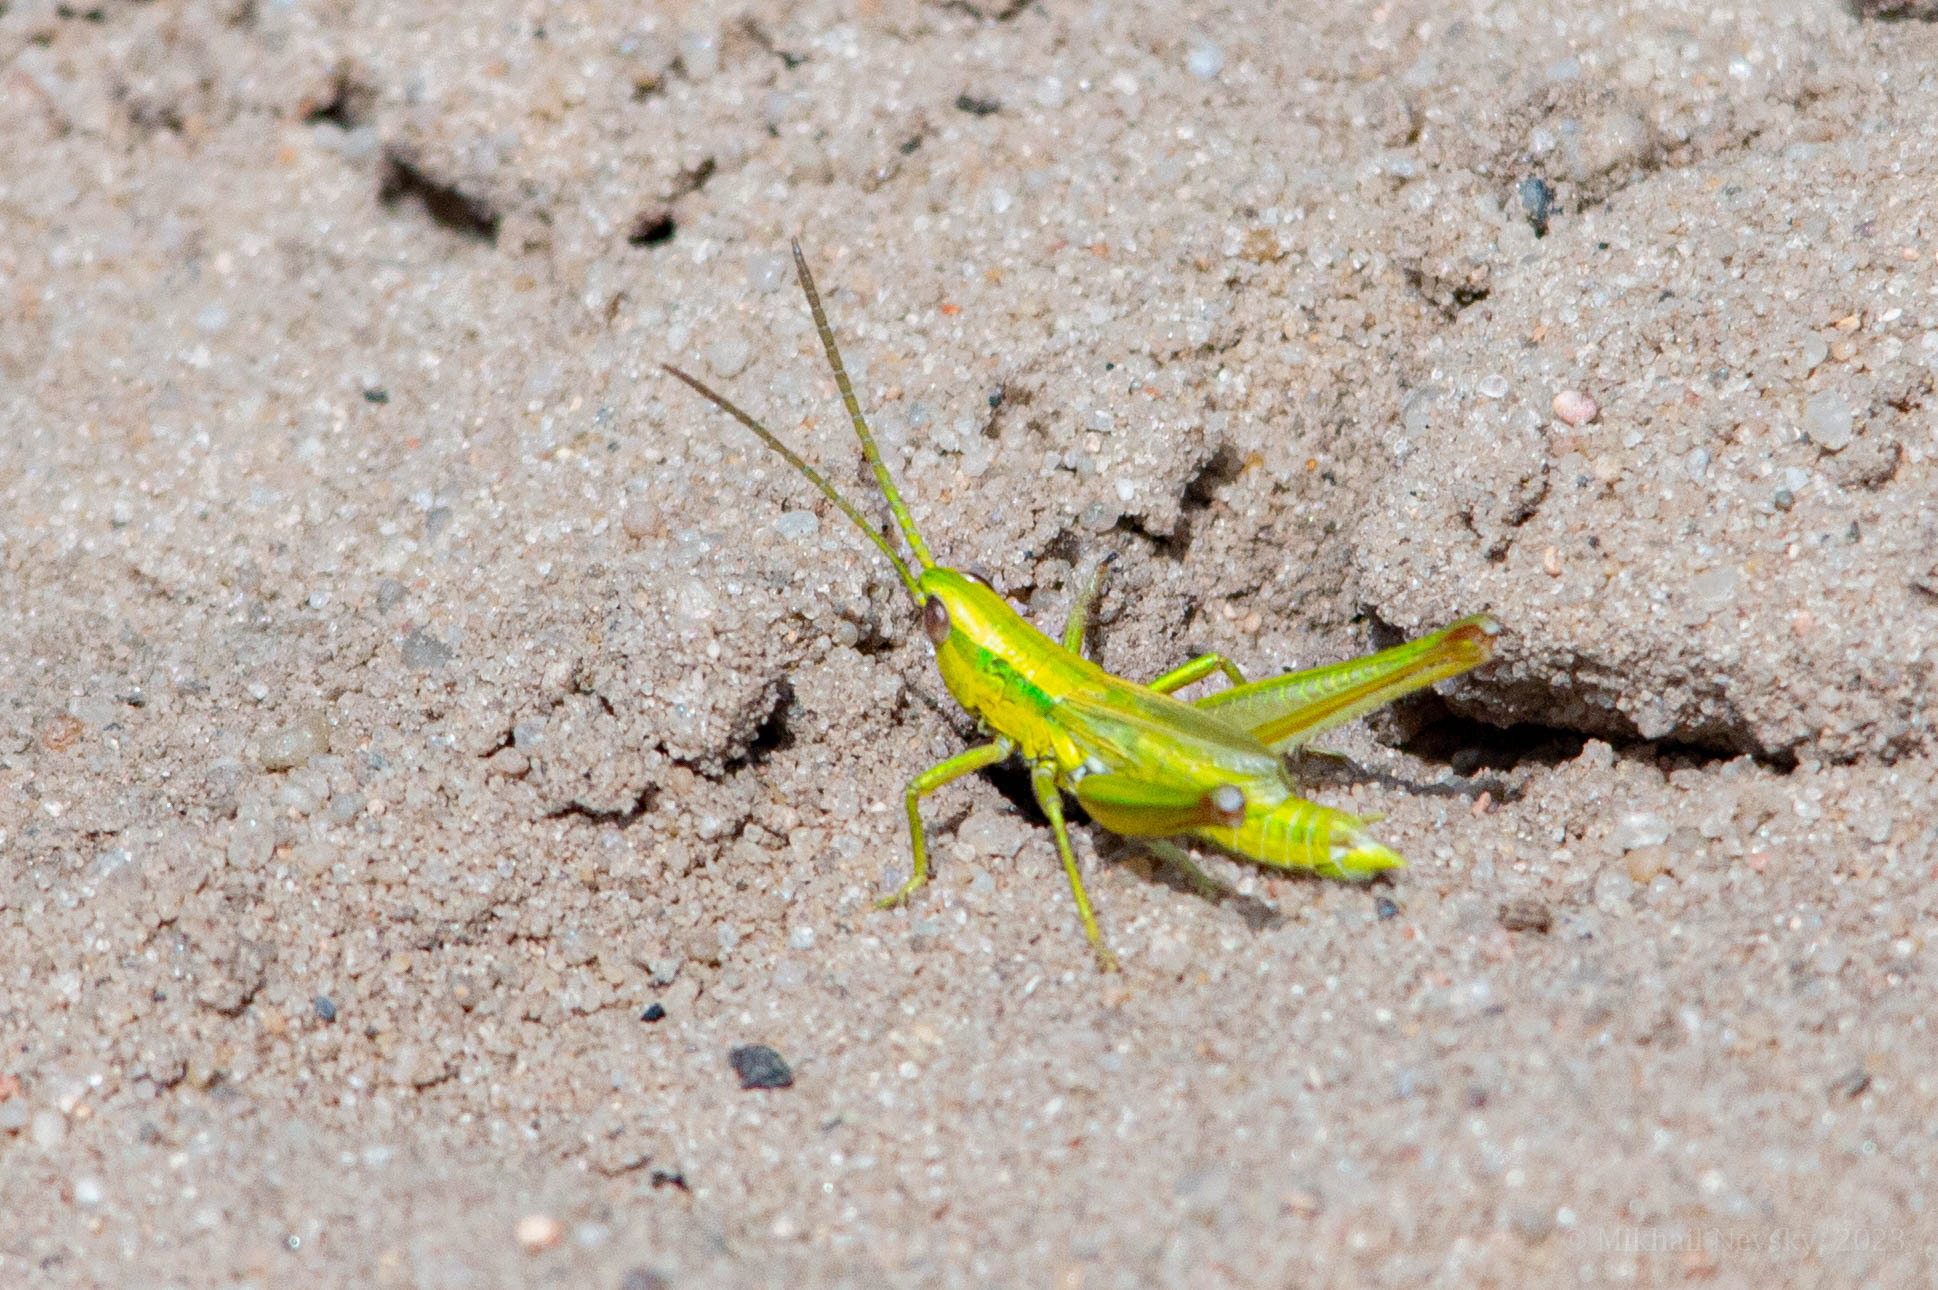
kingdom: Animalia
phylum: Arthropoda
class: Insecta
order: Orthoptera
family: Acrididae
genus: Euthystira
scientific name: Euthystira brachyptera
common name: Small gold grasshopper
